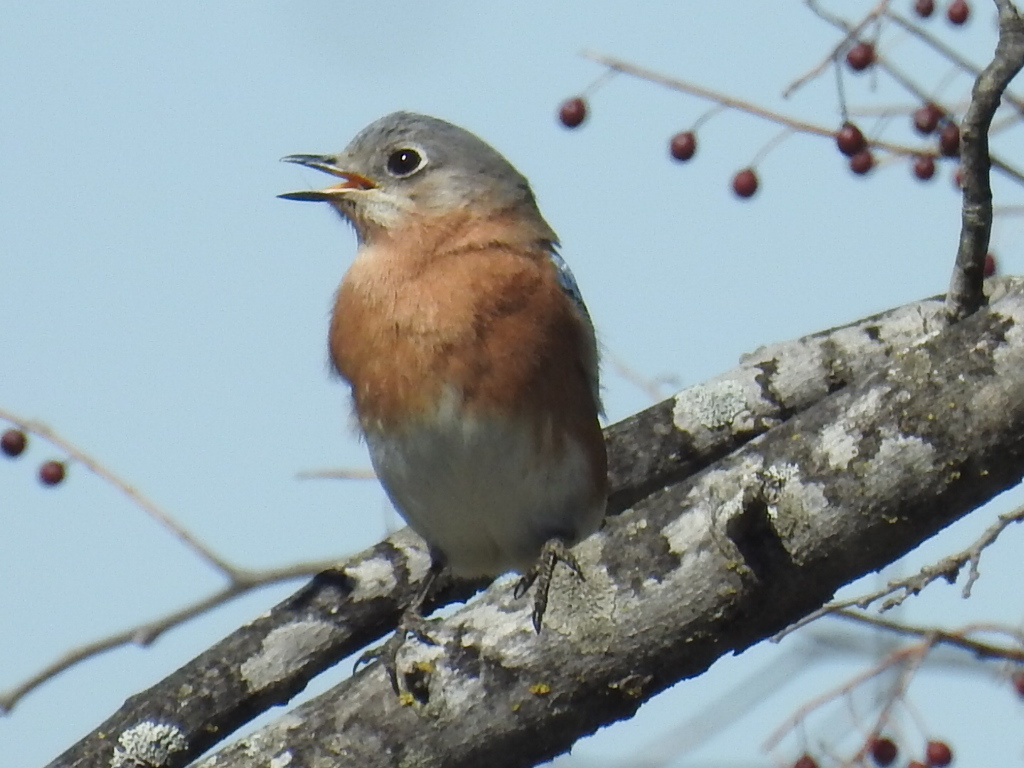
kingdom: Animalia
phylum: Chordata
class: Aves
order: Passeriformes
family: Turdidae
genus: Sialia
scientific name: Sialia sialis
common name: Eastern bluebird
